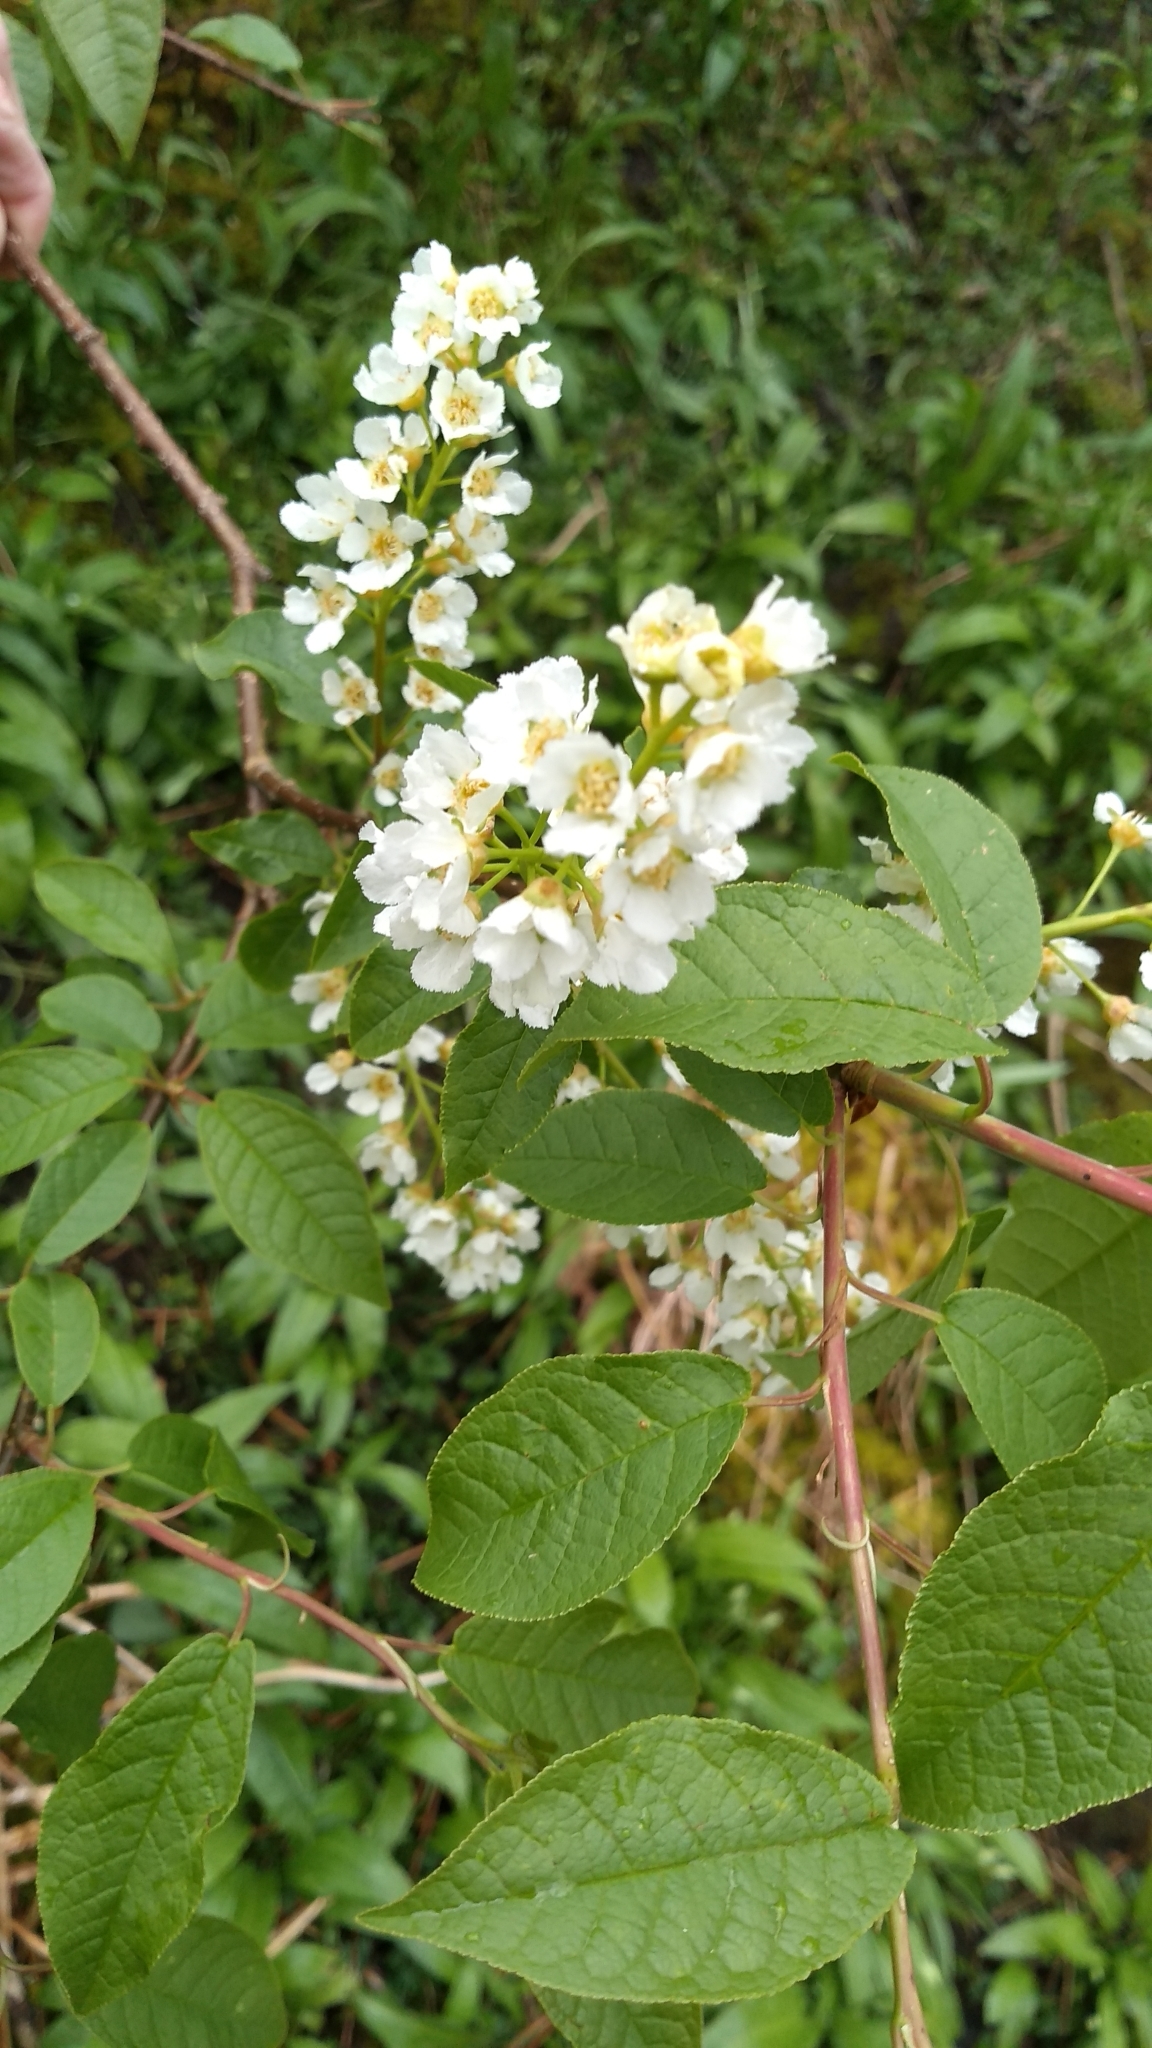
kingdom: Plantae
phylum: Tracheophyta
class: Magnoliopsida
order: Rosales
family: Rosaceae
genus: Prunus
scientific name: Prunus padus
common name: Bird cherry
